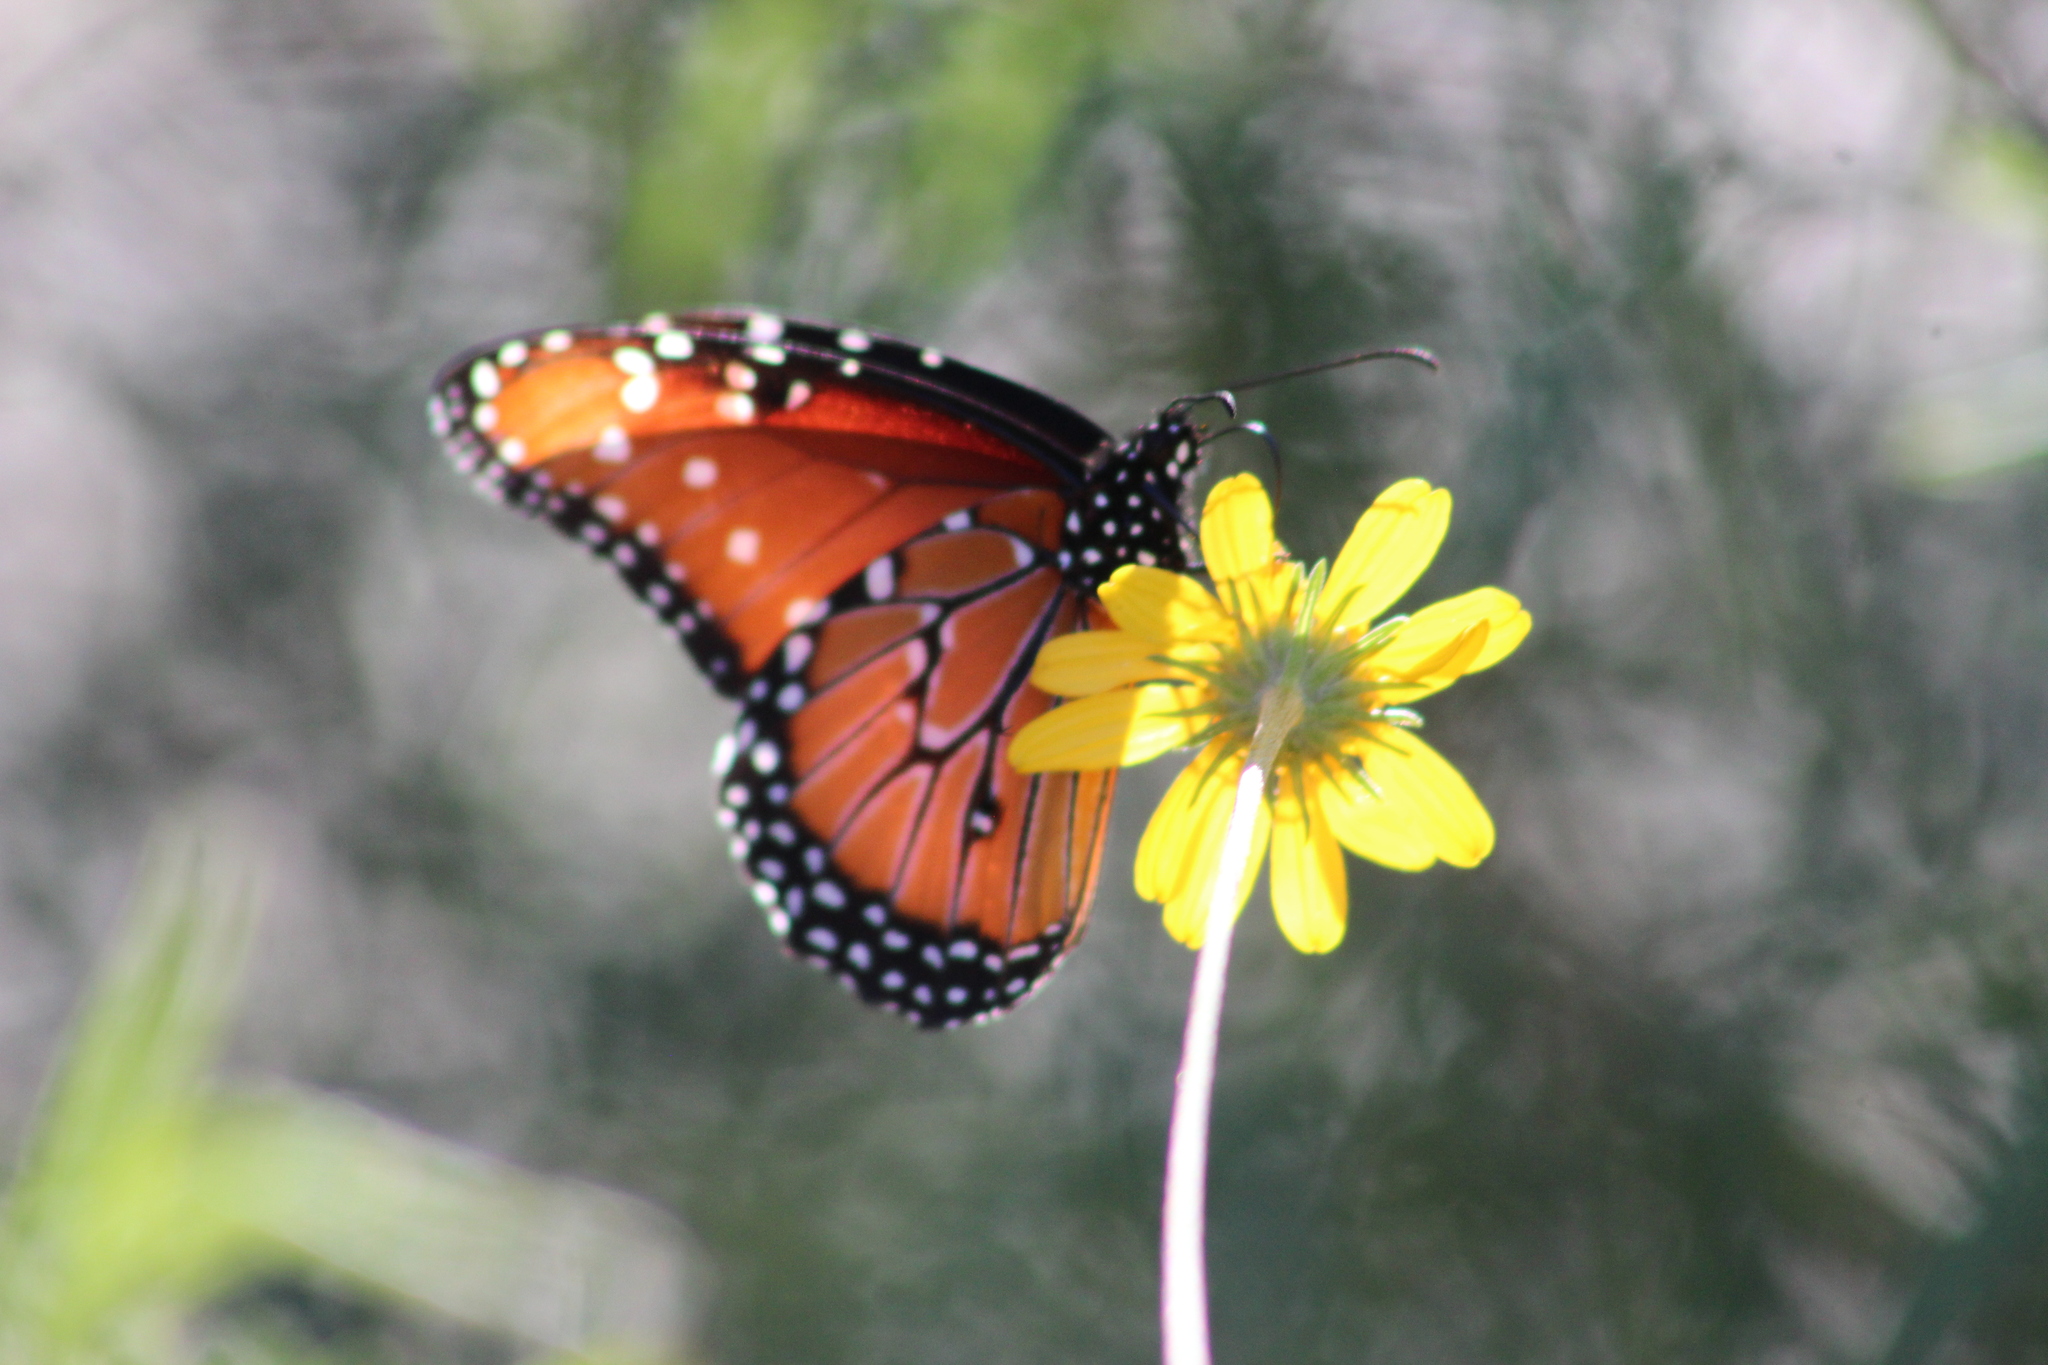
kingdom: Animalia
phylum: Arthropoda
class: Insecta
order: Lepidoptera
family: Nymphalidae
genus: Danaus
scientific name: Danaus gilippus
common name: Queen
